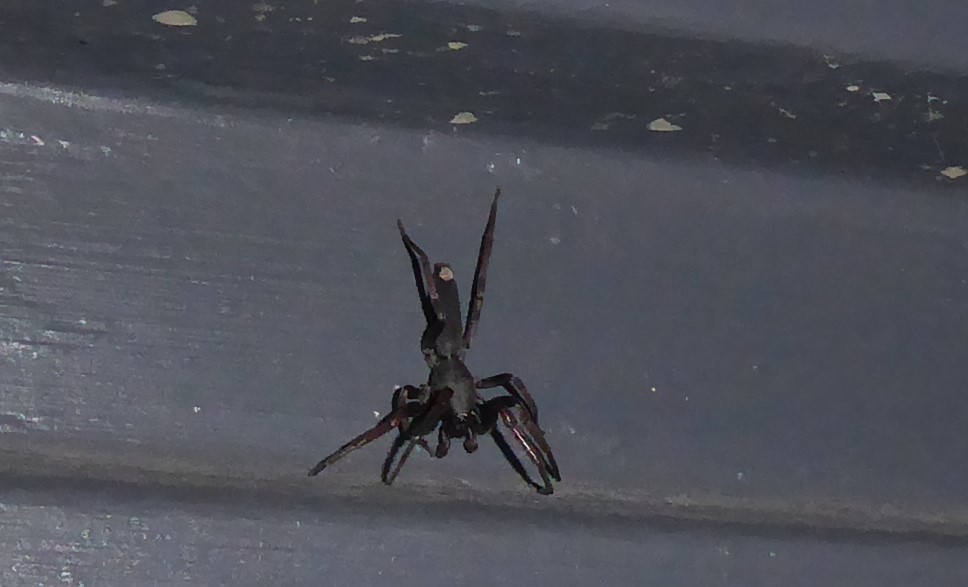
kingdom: Animalia
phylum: Arthropoda
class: Arachnida
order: Araneae
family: Lamponidae
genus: Lampona
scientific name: Lampona cylindrata
